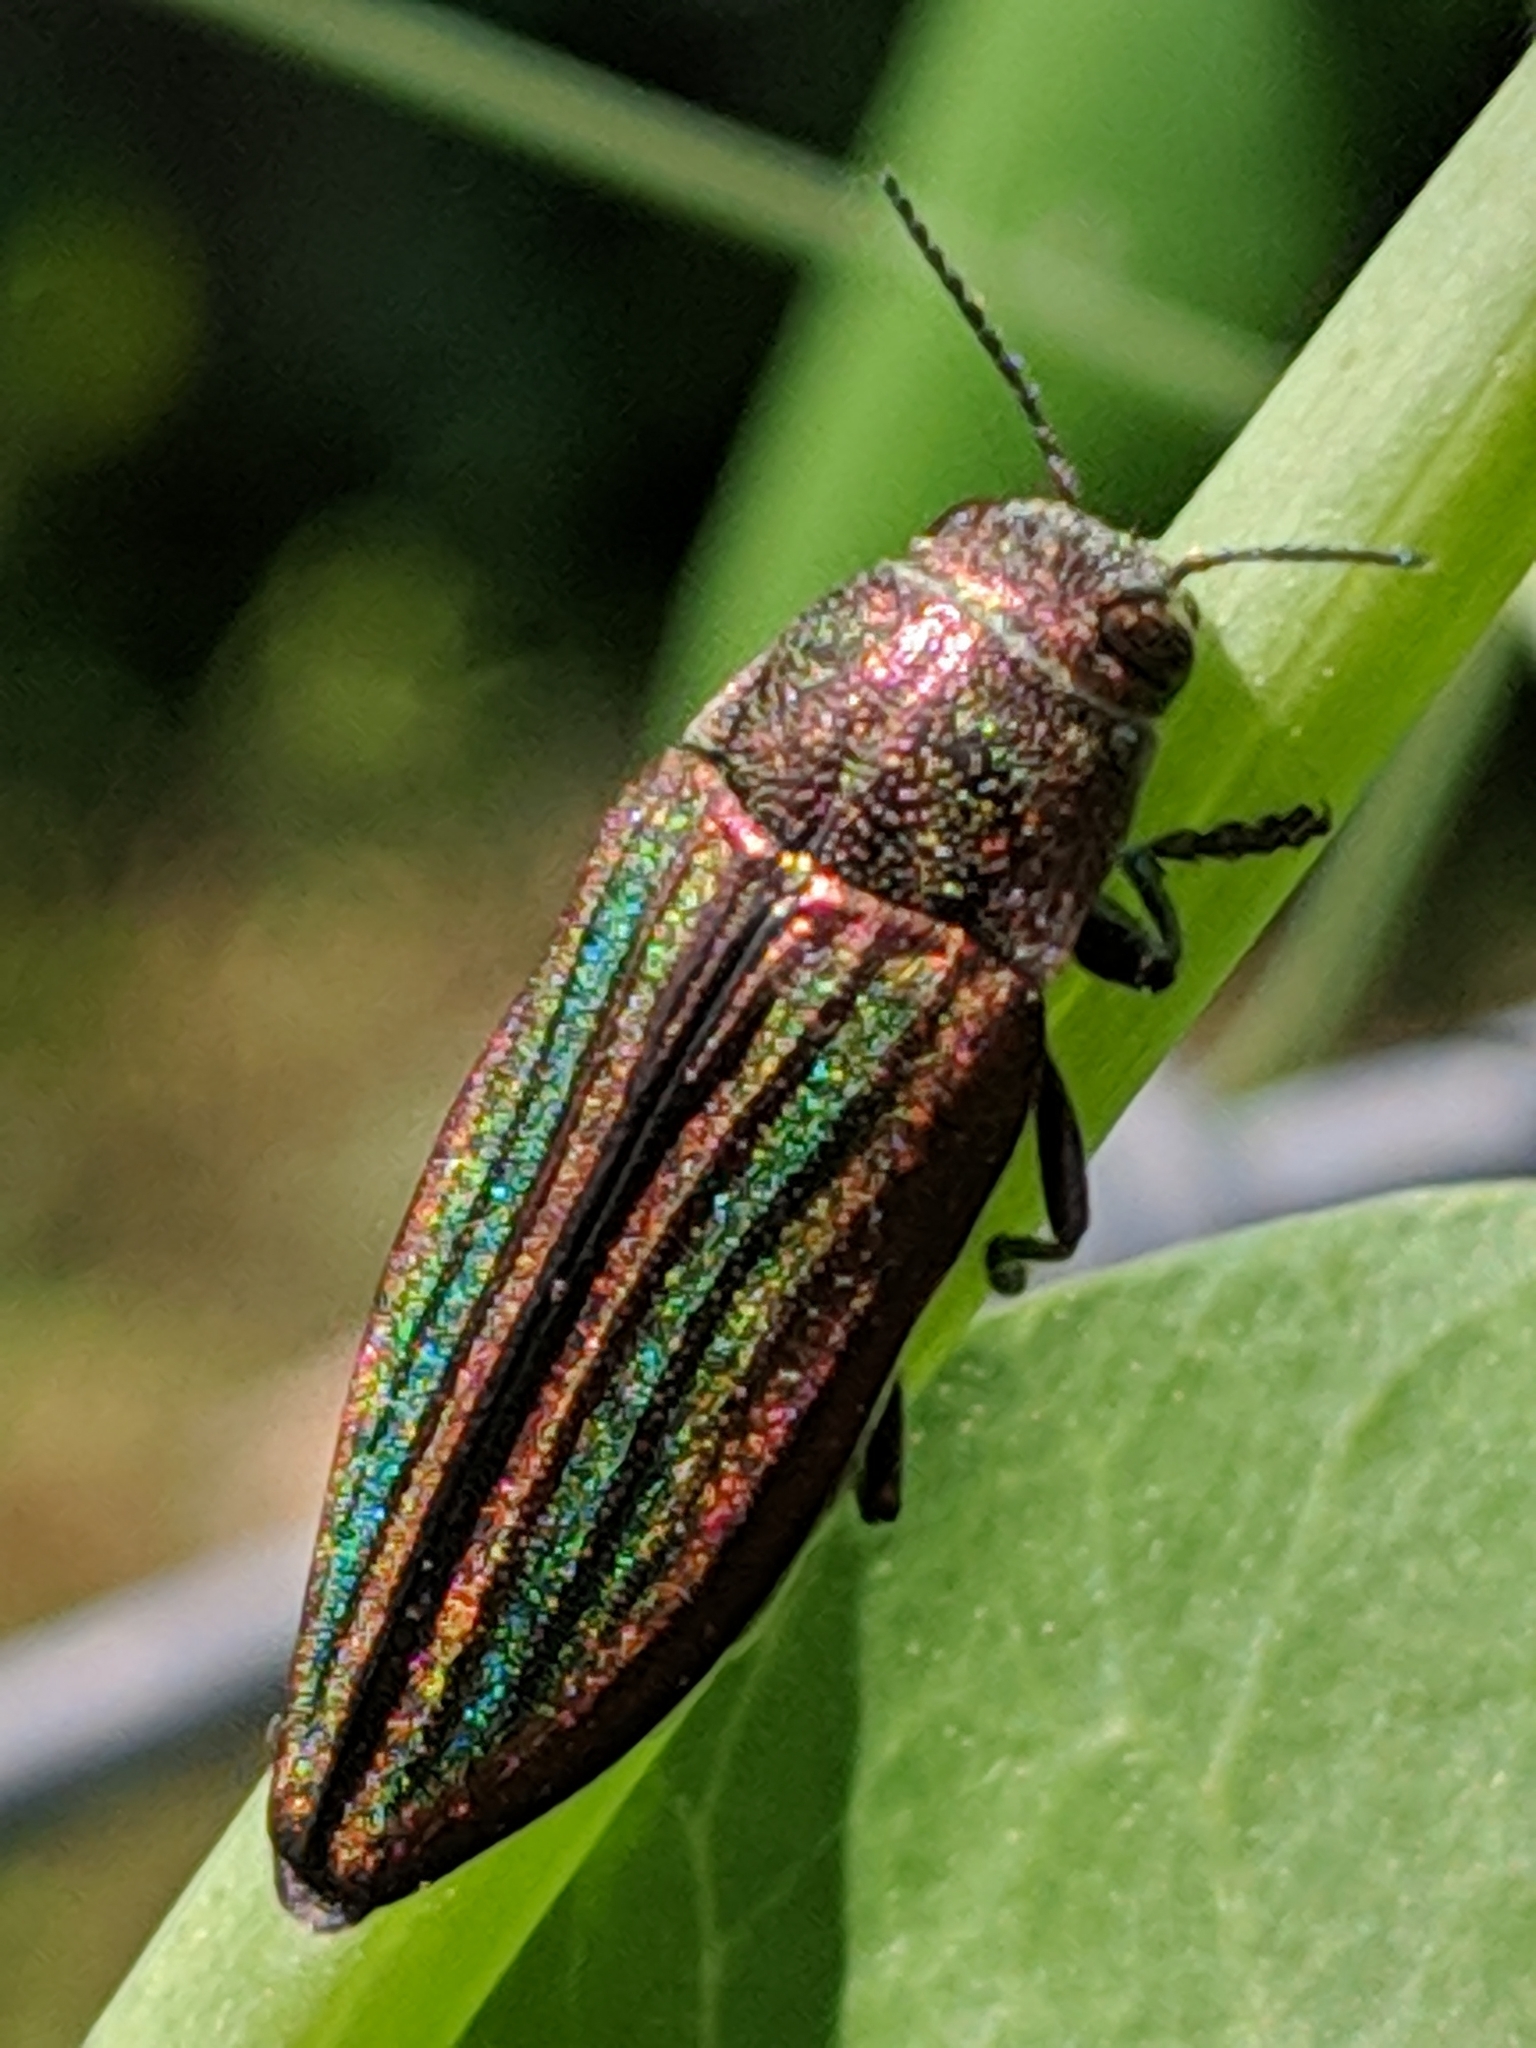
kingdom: Animalia
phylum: Arthropoda
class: Insecta
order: Coleoptera
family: Buprestidae
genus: Buprestis
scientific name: Buprestis striata
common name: Striated jewel beetle
